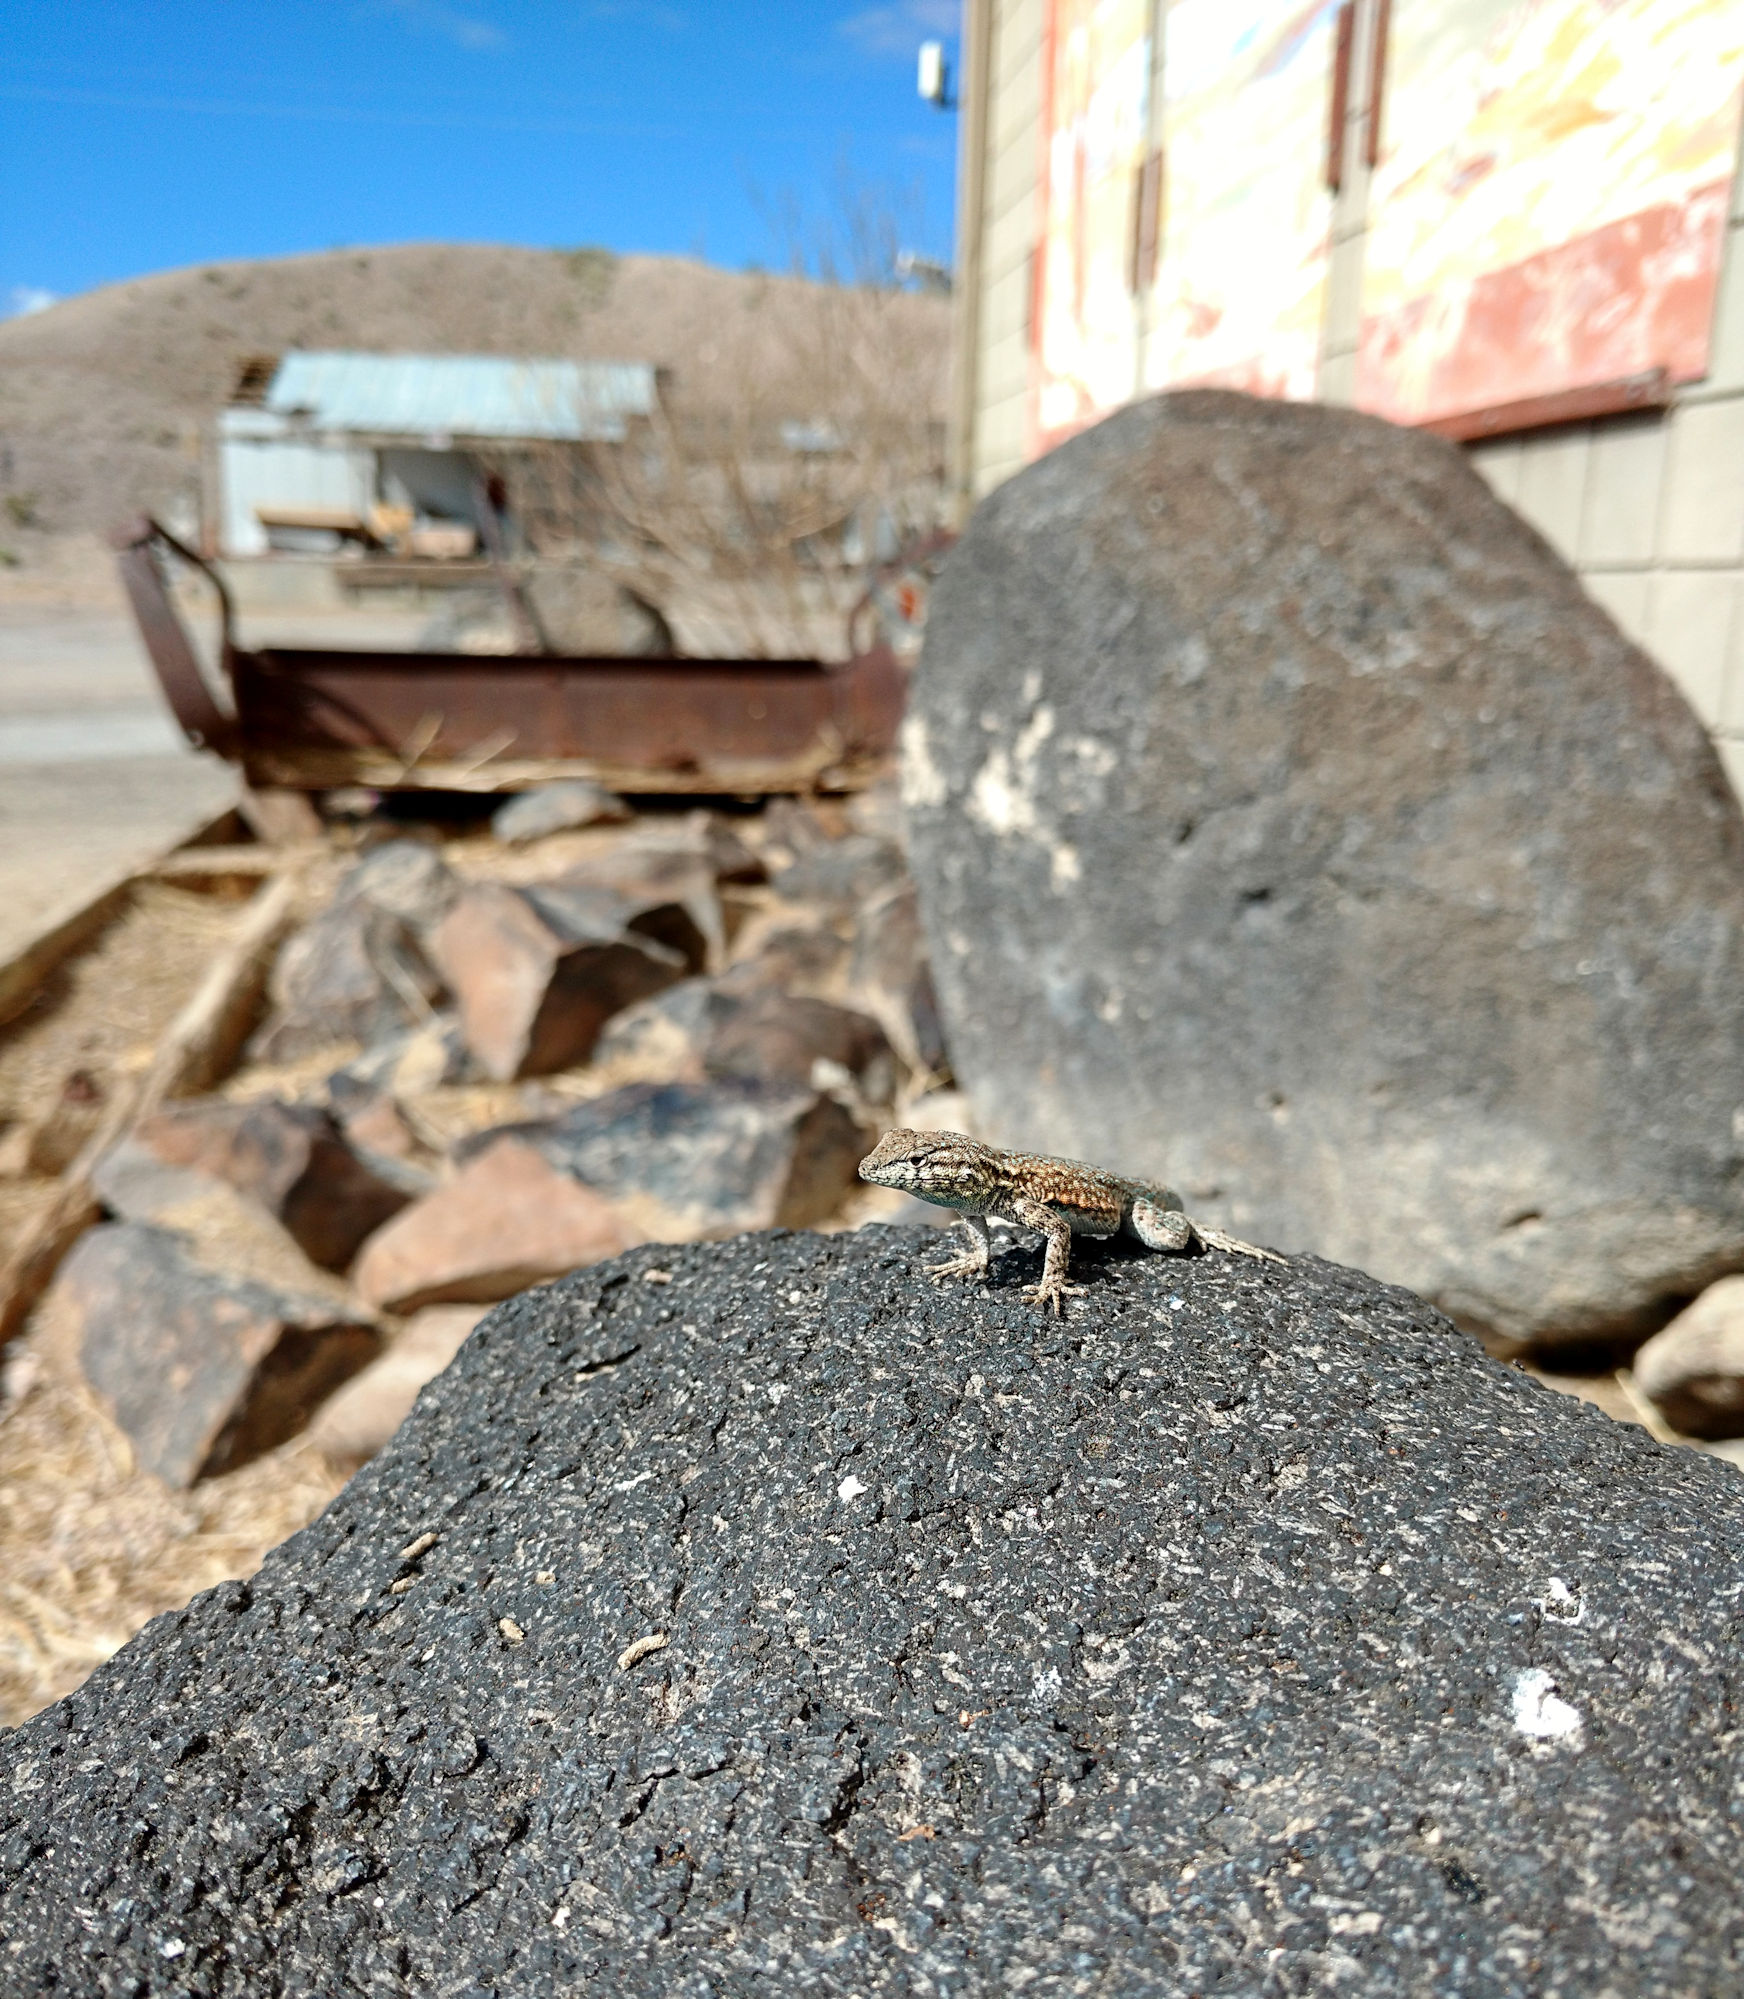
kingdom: Animalia
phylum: Chordata
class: Squamata
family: Phrynosomatidae
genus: Uta
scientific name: Uta stansburiana
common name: Side-blotched lizard
